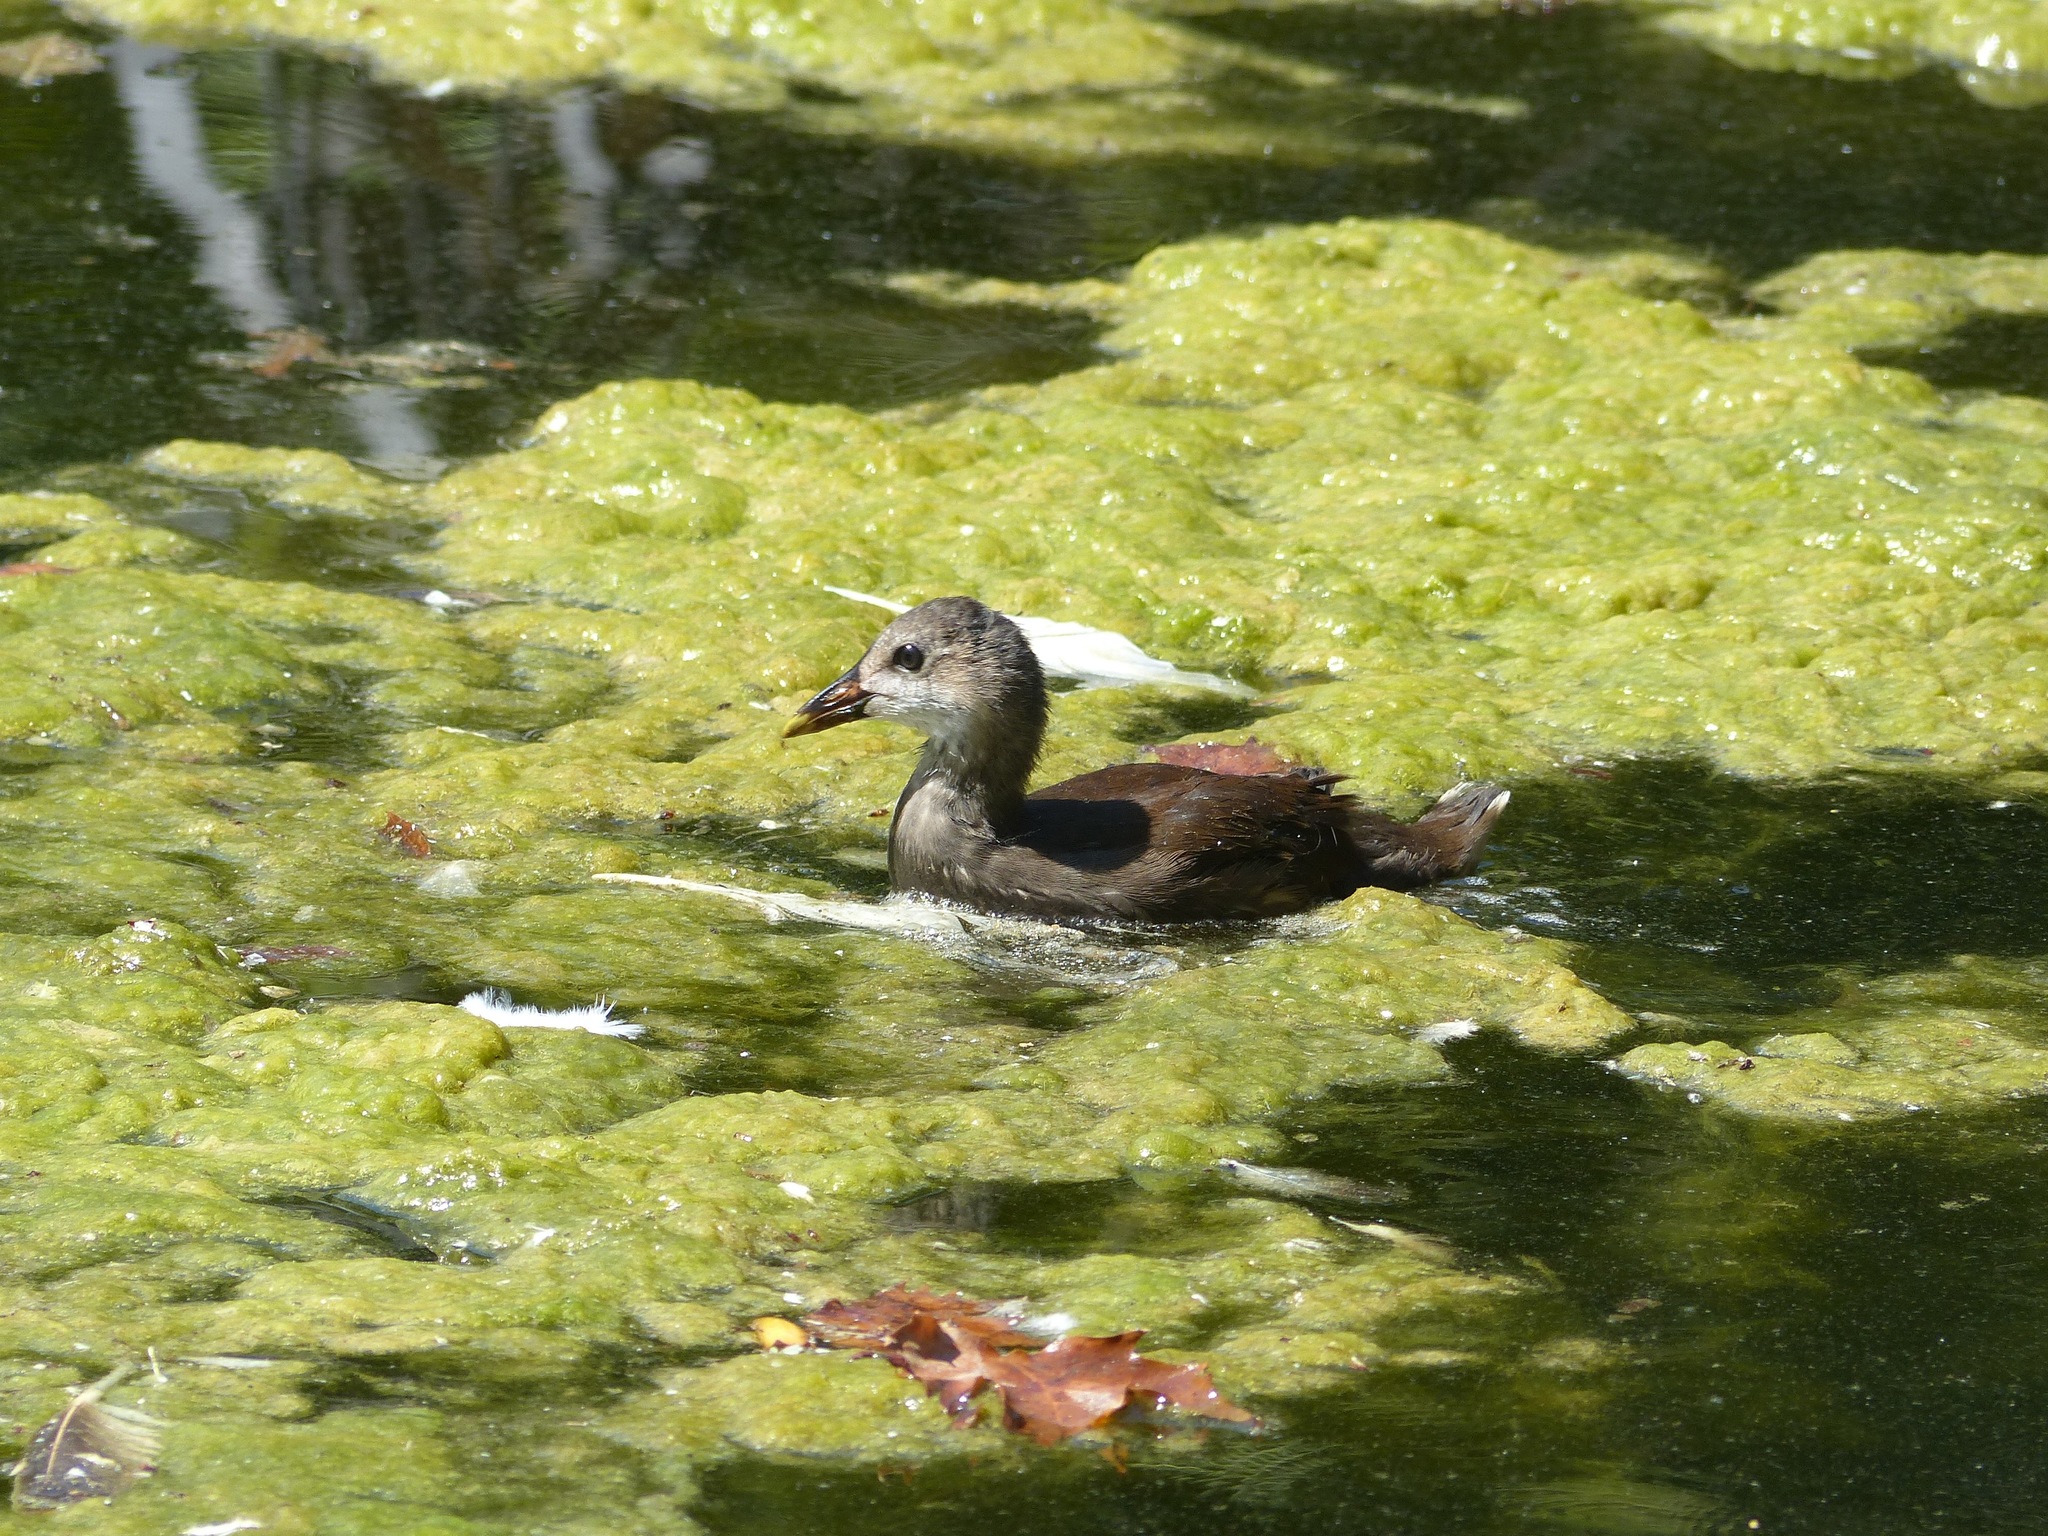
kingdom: Animalia
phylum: Chordata
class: Aves
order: Gruiformes
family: Rallidae
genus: Gallinula
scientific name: Gallinula chloropus
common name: Common moorhen
